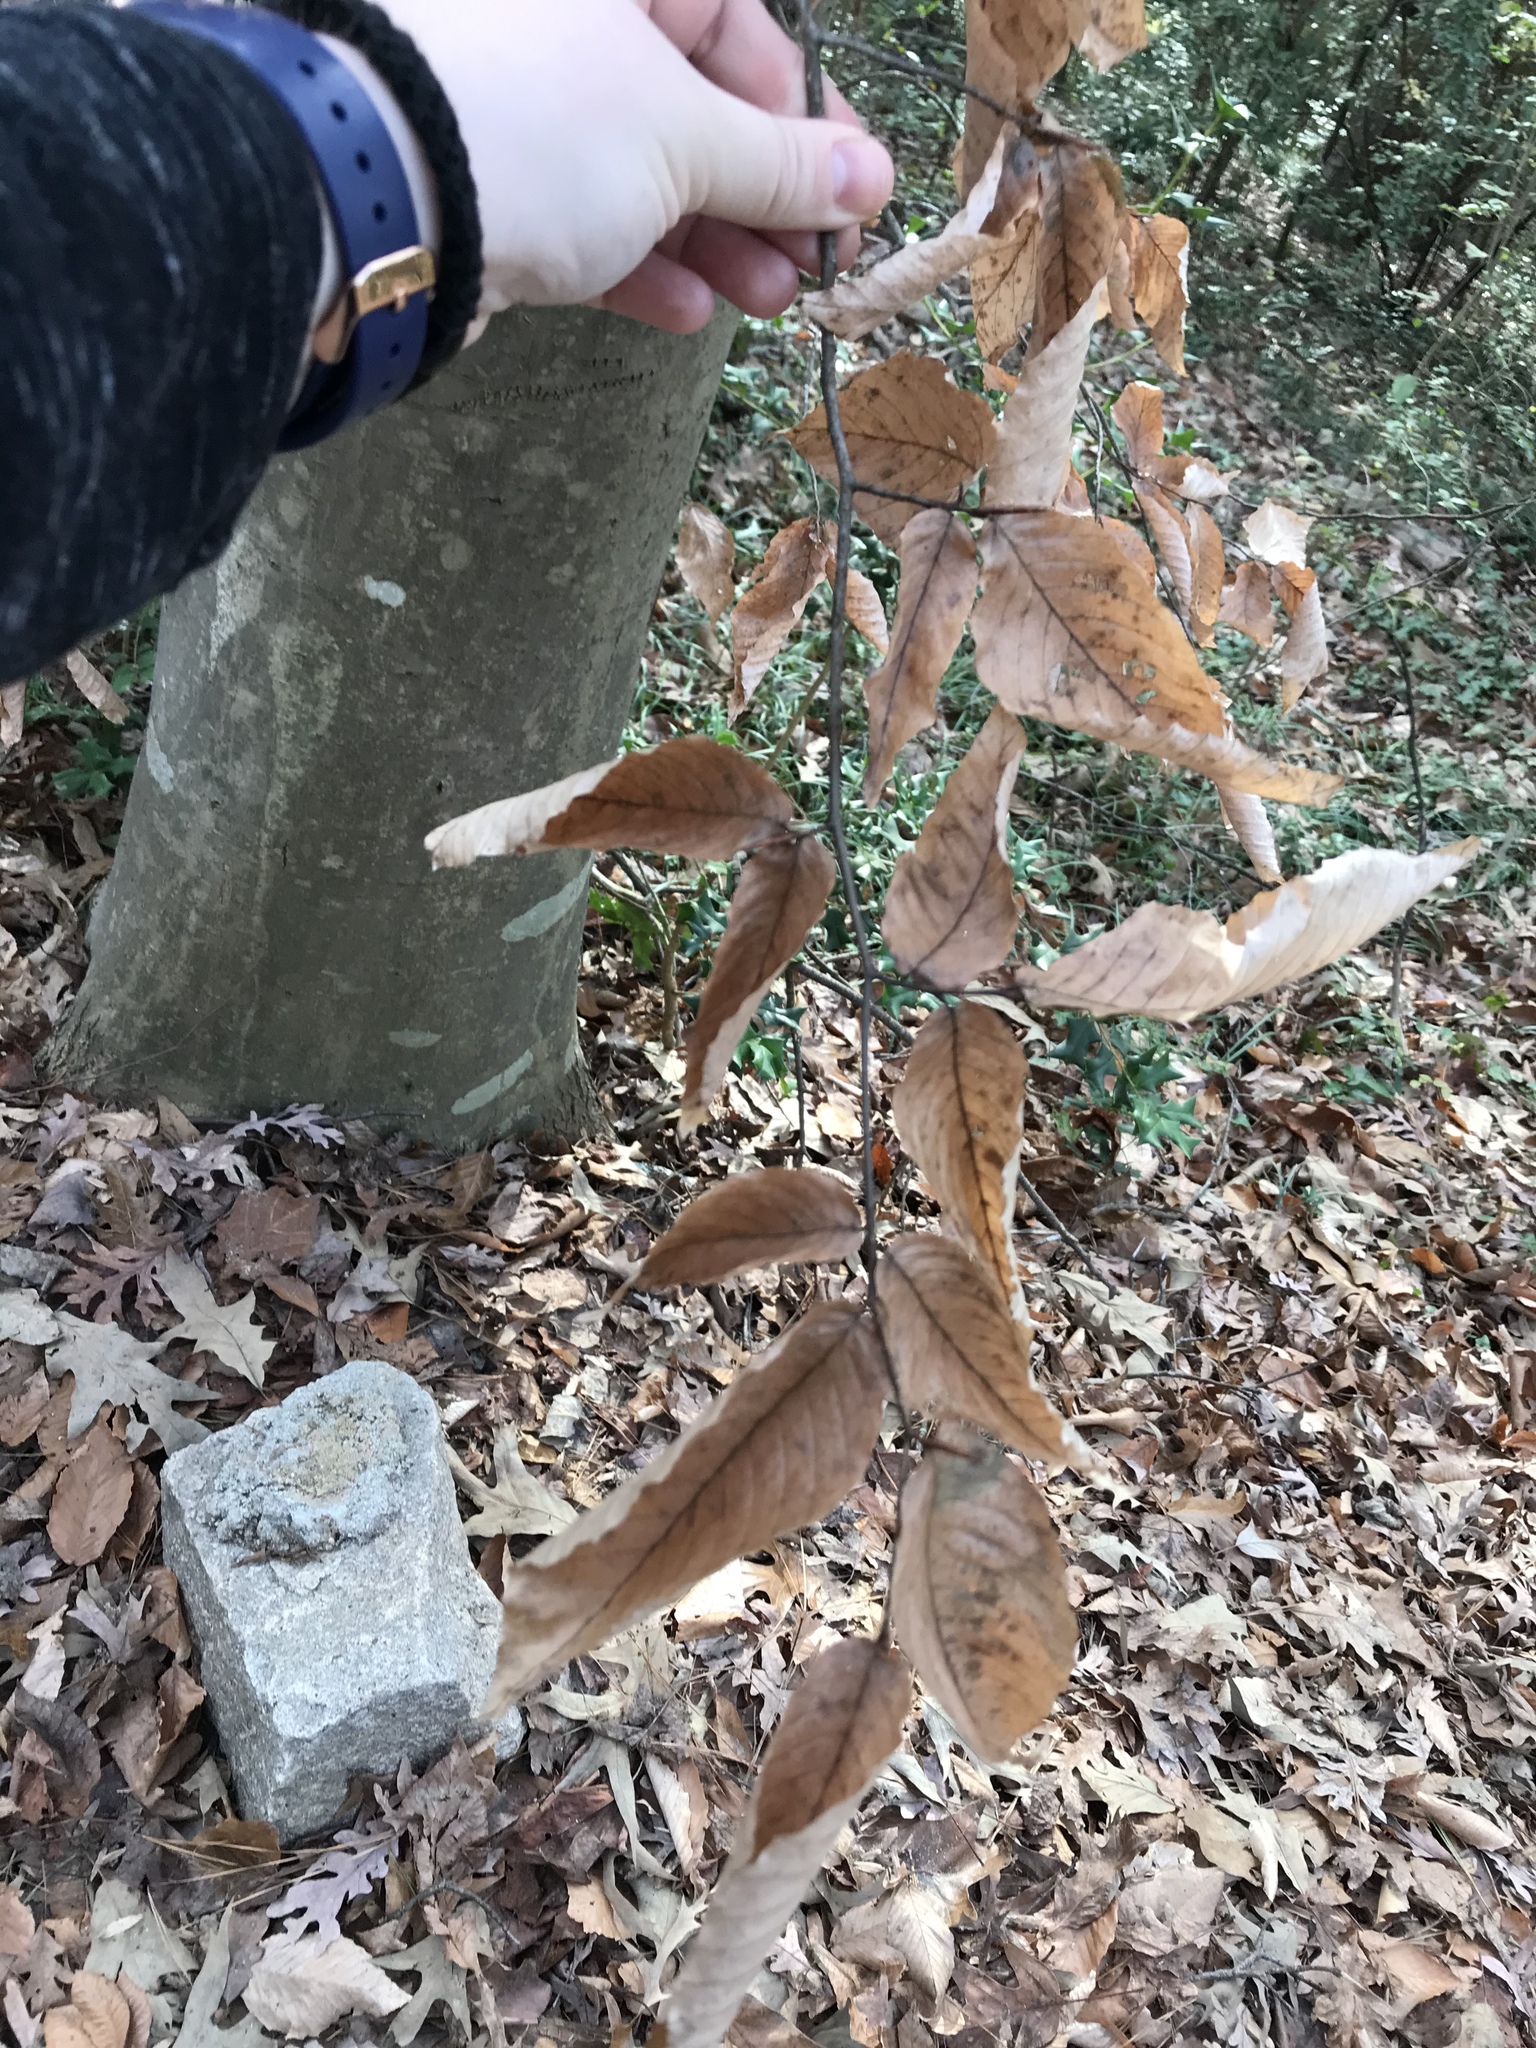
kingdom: Plantae
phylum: Tracheophyta
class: Magnoliopsida
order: Fagales
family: Fagaceae
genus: Fagus
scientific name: Fagus grandifolia
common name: American beech
